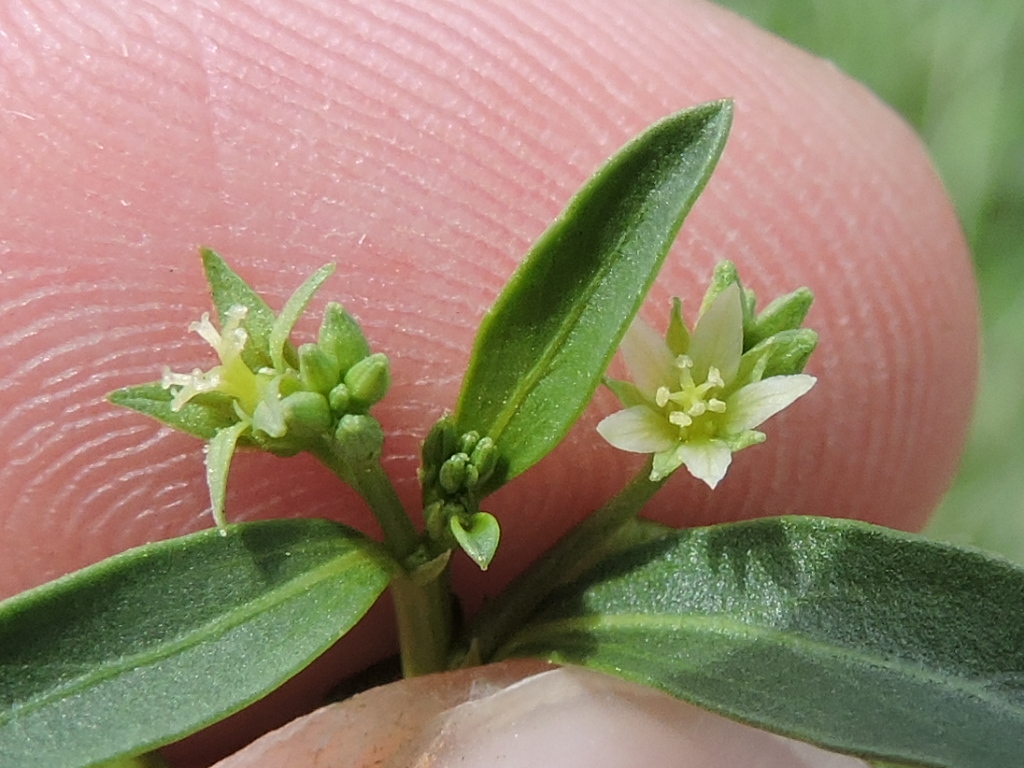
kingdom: Plantae
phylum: Tracheophyta
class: Magnoliopsida
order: Malpighiales
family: Euphorbiaceae
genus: Ditaxis
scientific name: Ditaxis humilis
